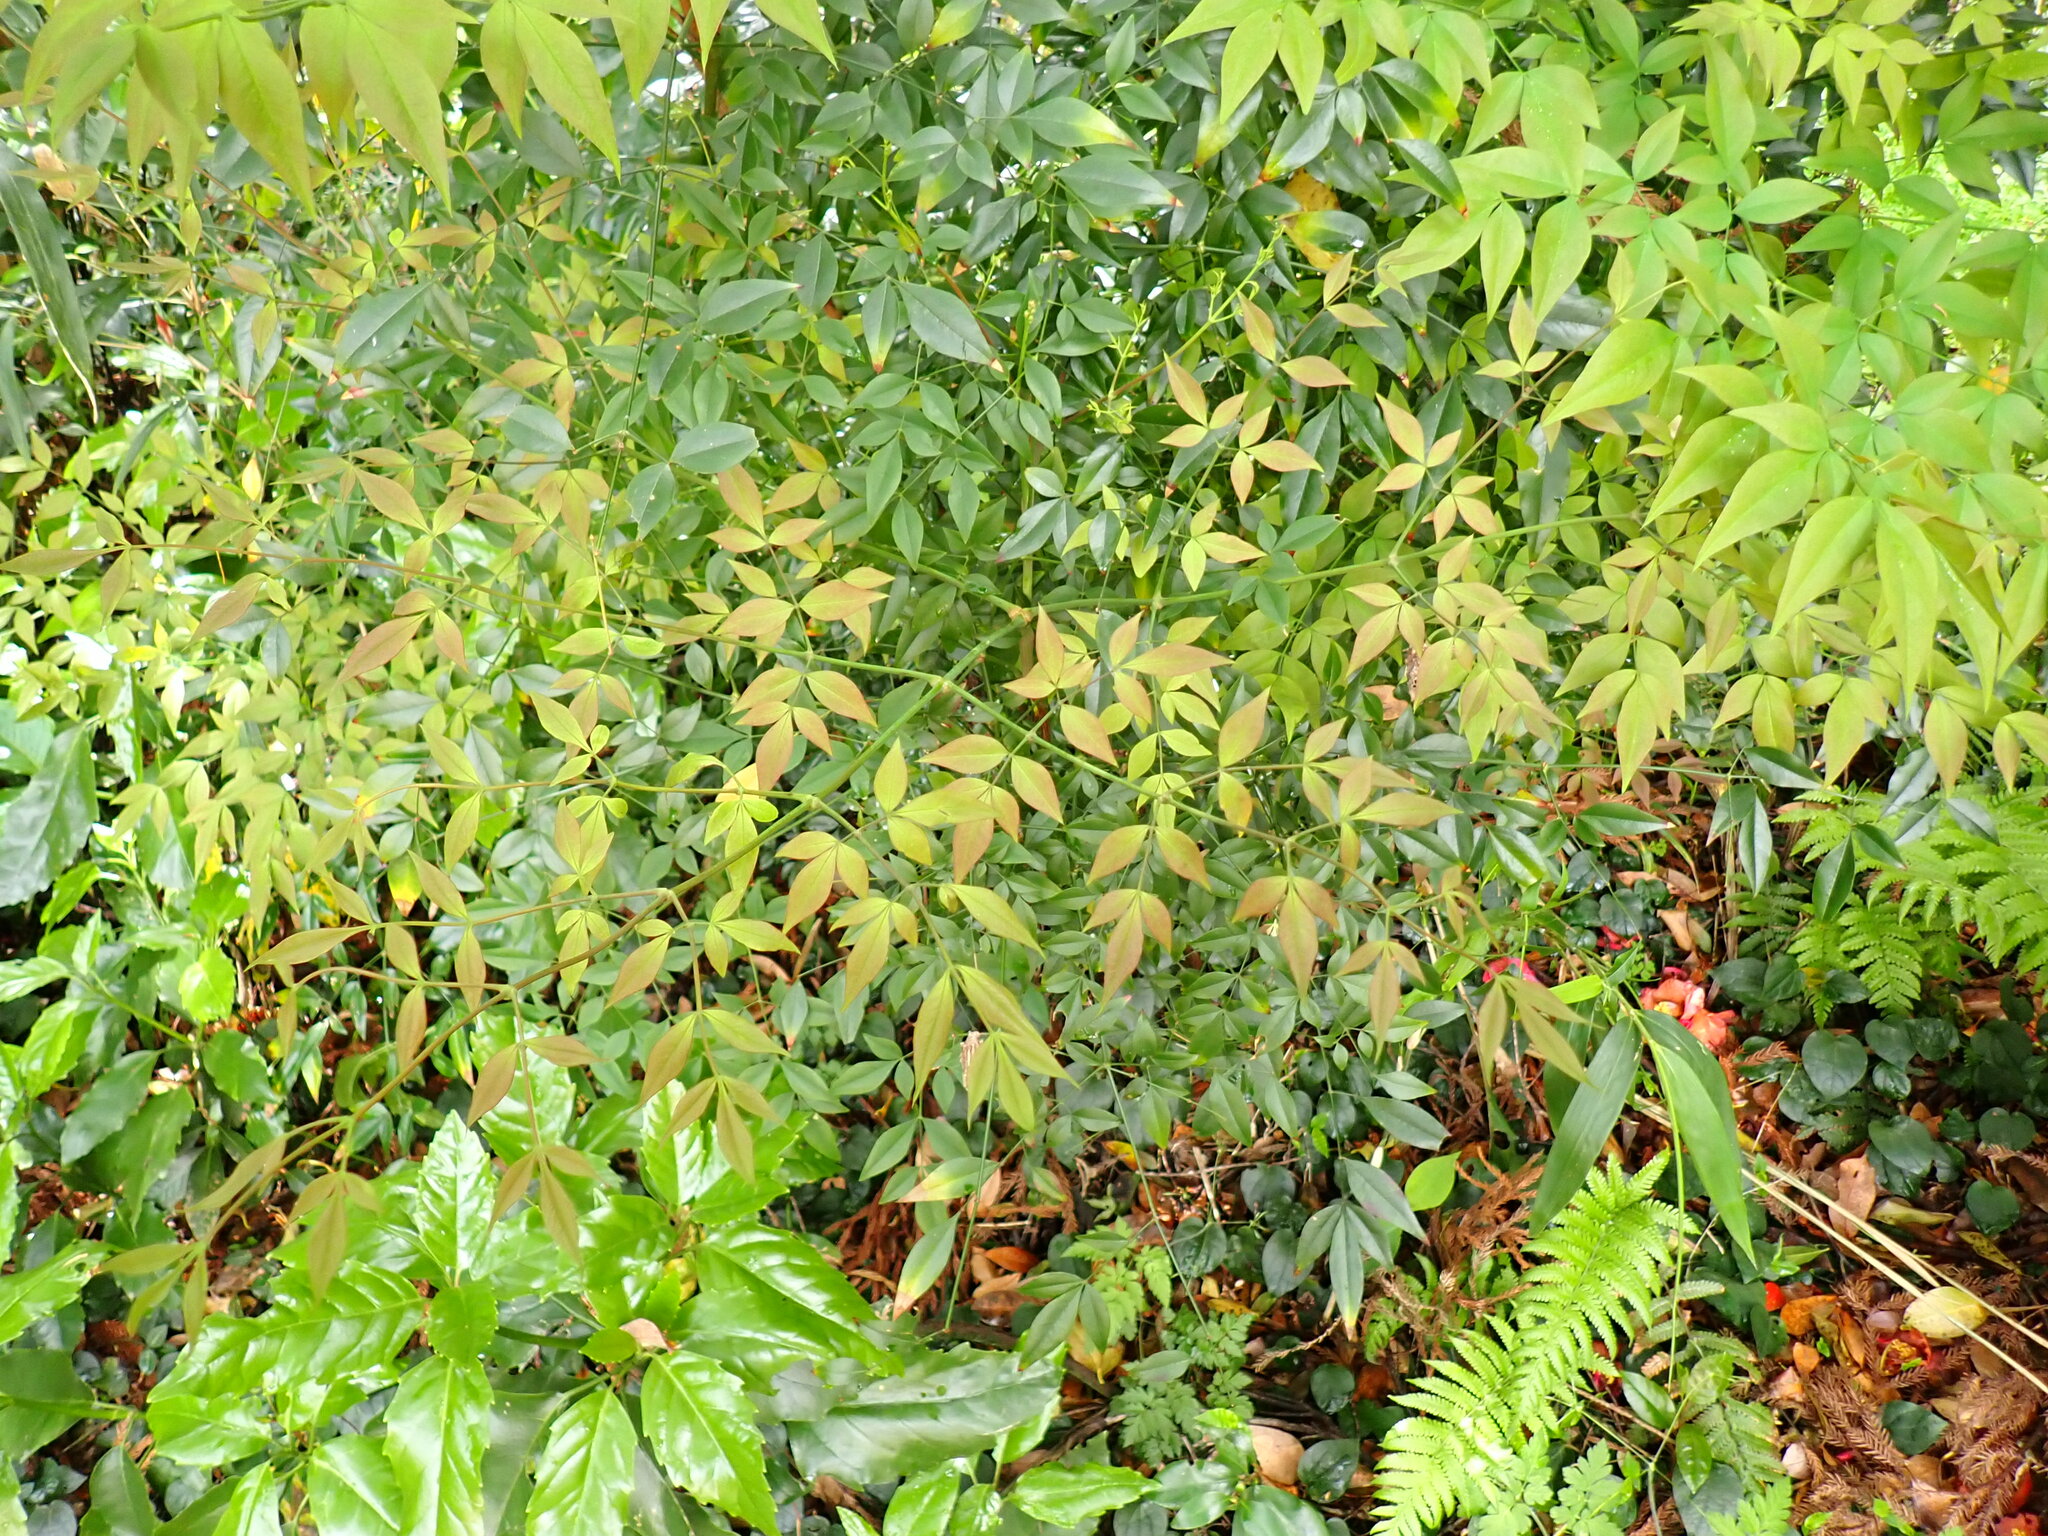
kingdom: Plantae
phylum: Tracheophyta
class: Magnoliopsida
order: Ranunculales
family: Berberidaceae
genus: Nandina
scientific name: Nandina domestica
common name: Sacred bamboo
